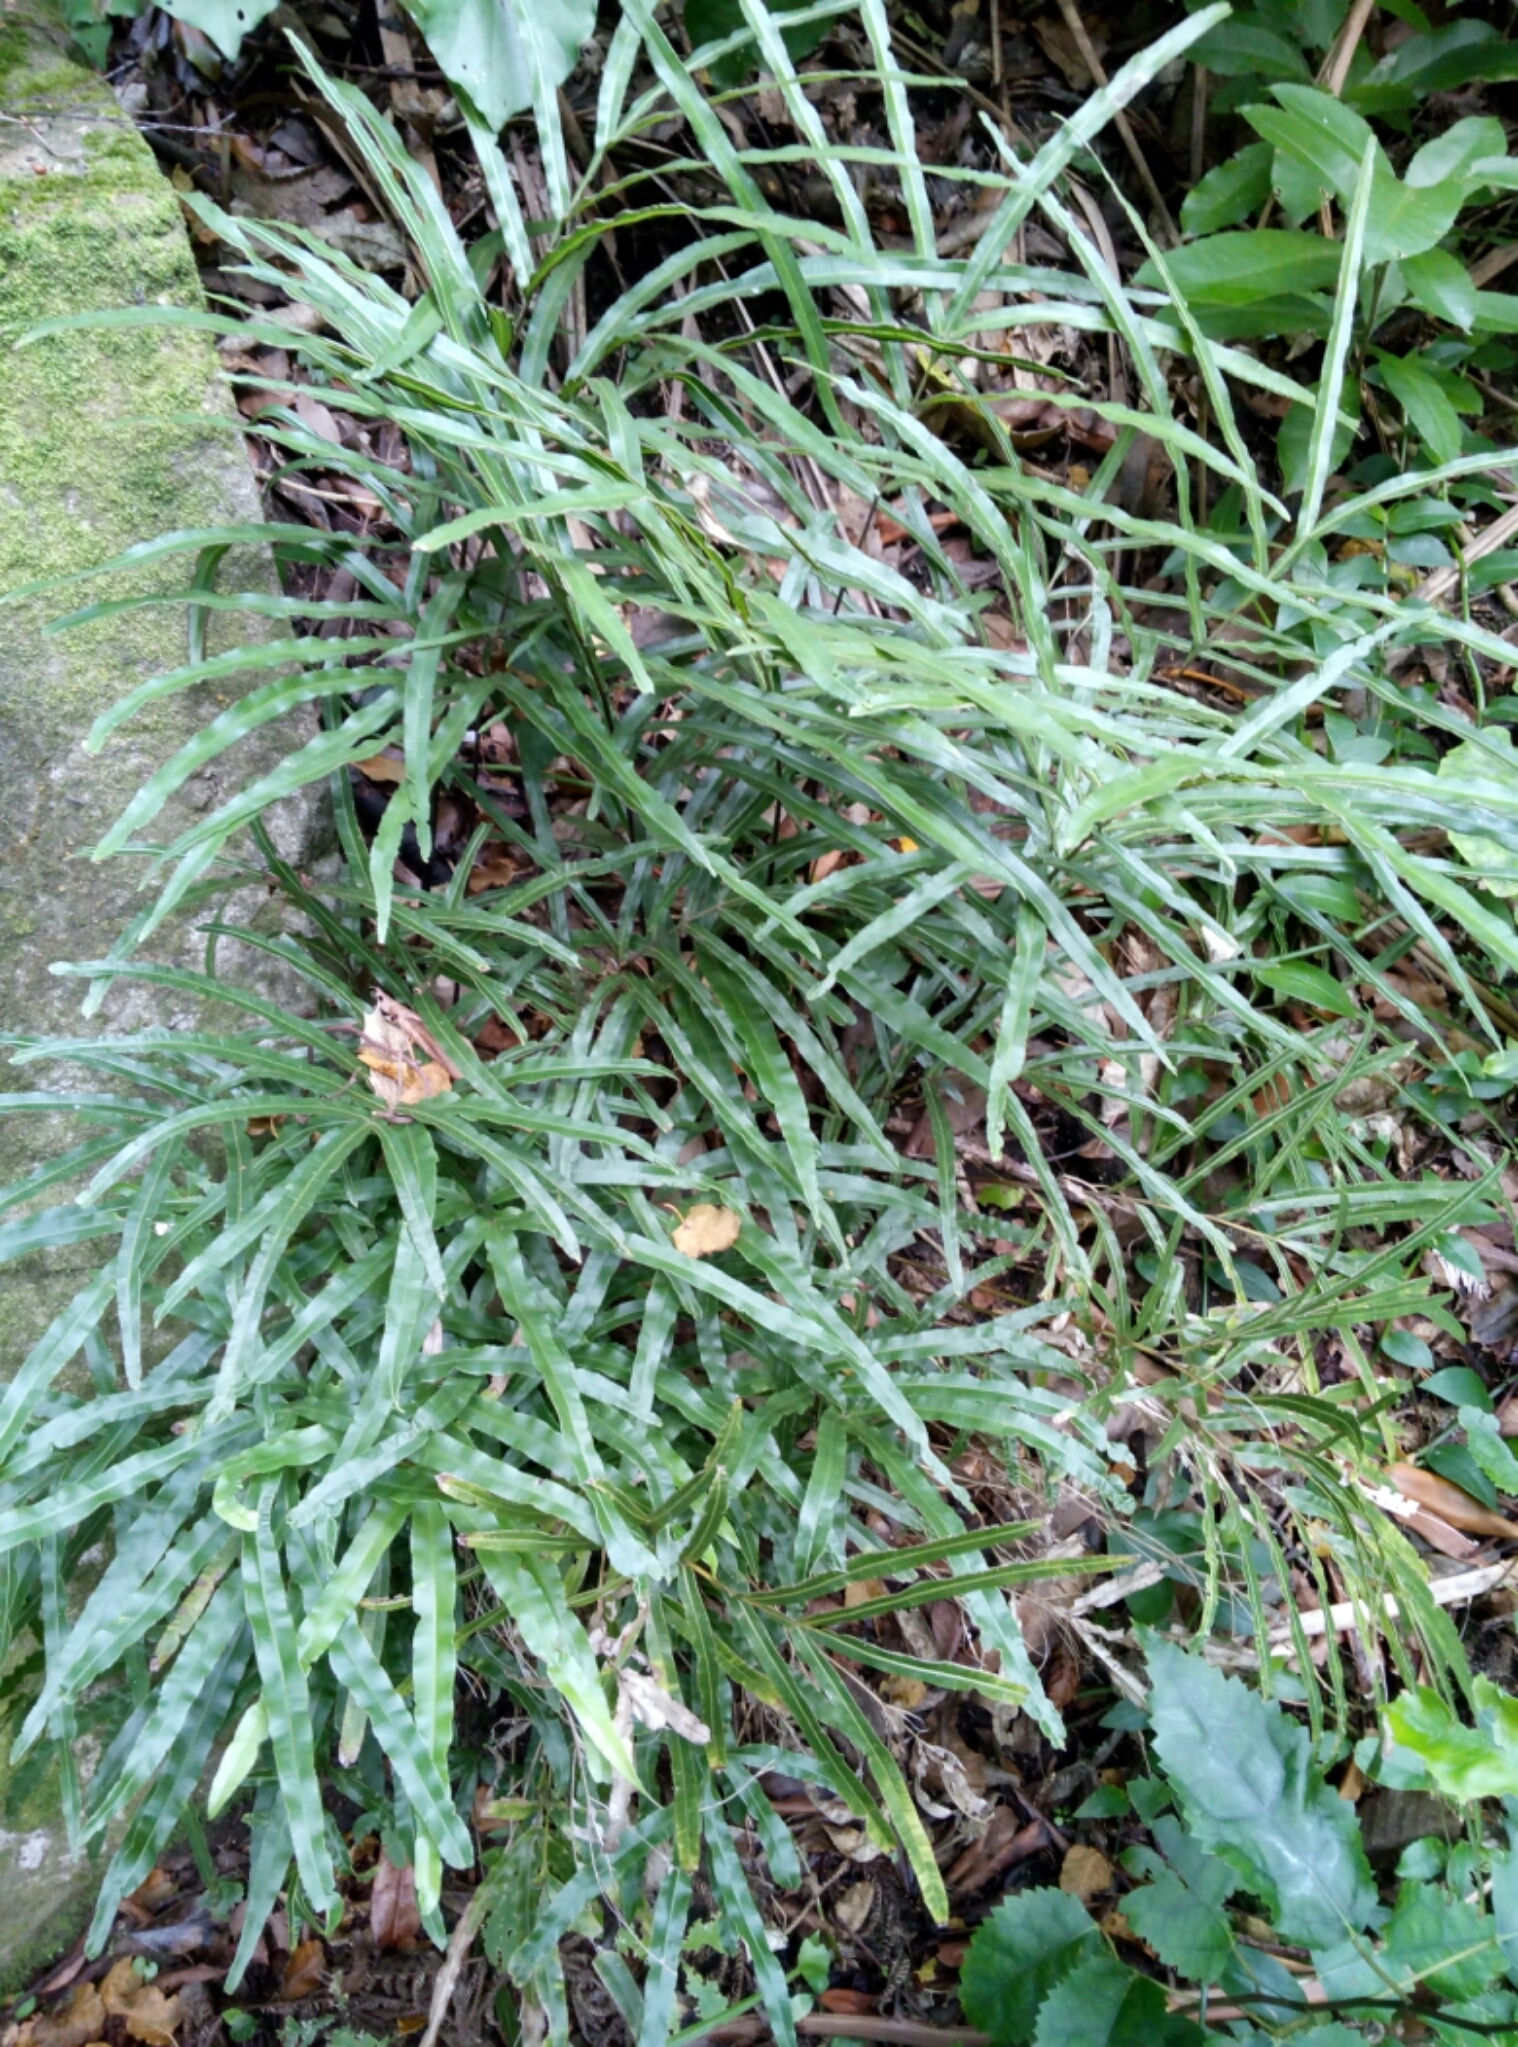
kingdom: Plantae
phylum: Tracheophyta
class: Polypodiopsida
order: Polypodiales
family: Pteridaceae
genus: Pteris
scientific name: Pteris cretica
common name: Ribbon fern
